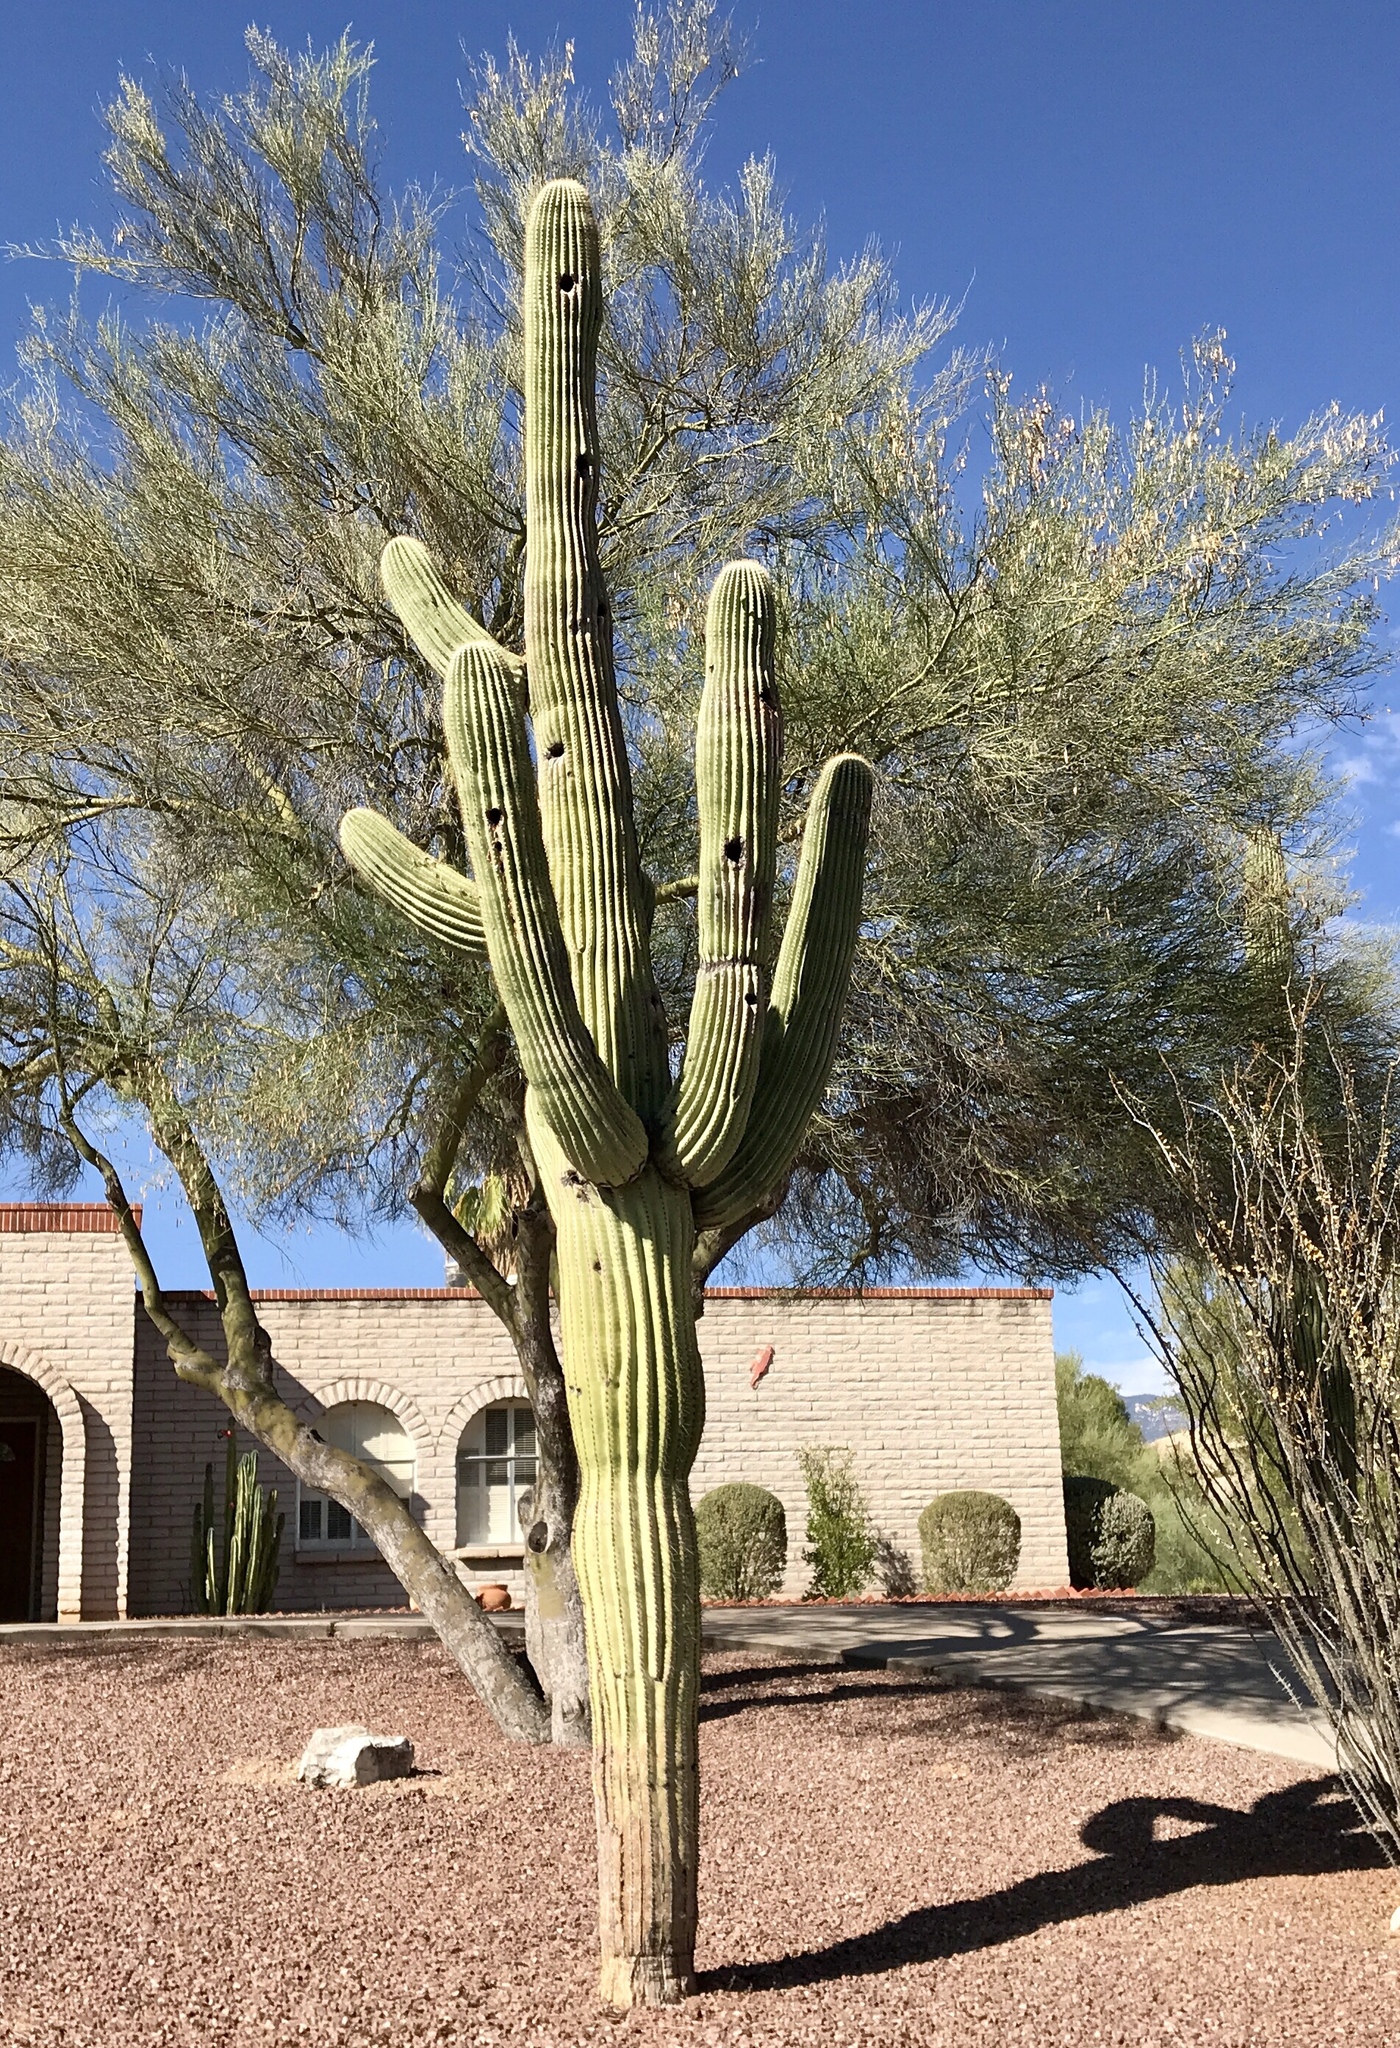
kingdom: Plantae
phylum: Tracheophyta
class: Magnoliopsida
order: Caryophyllales
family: Cactaceae
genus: Carnegiea
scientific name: Carnegiea gigantea
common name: Saguaro
